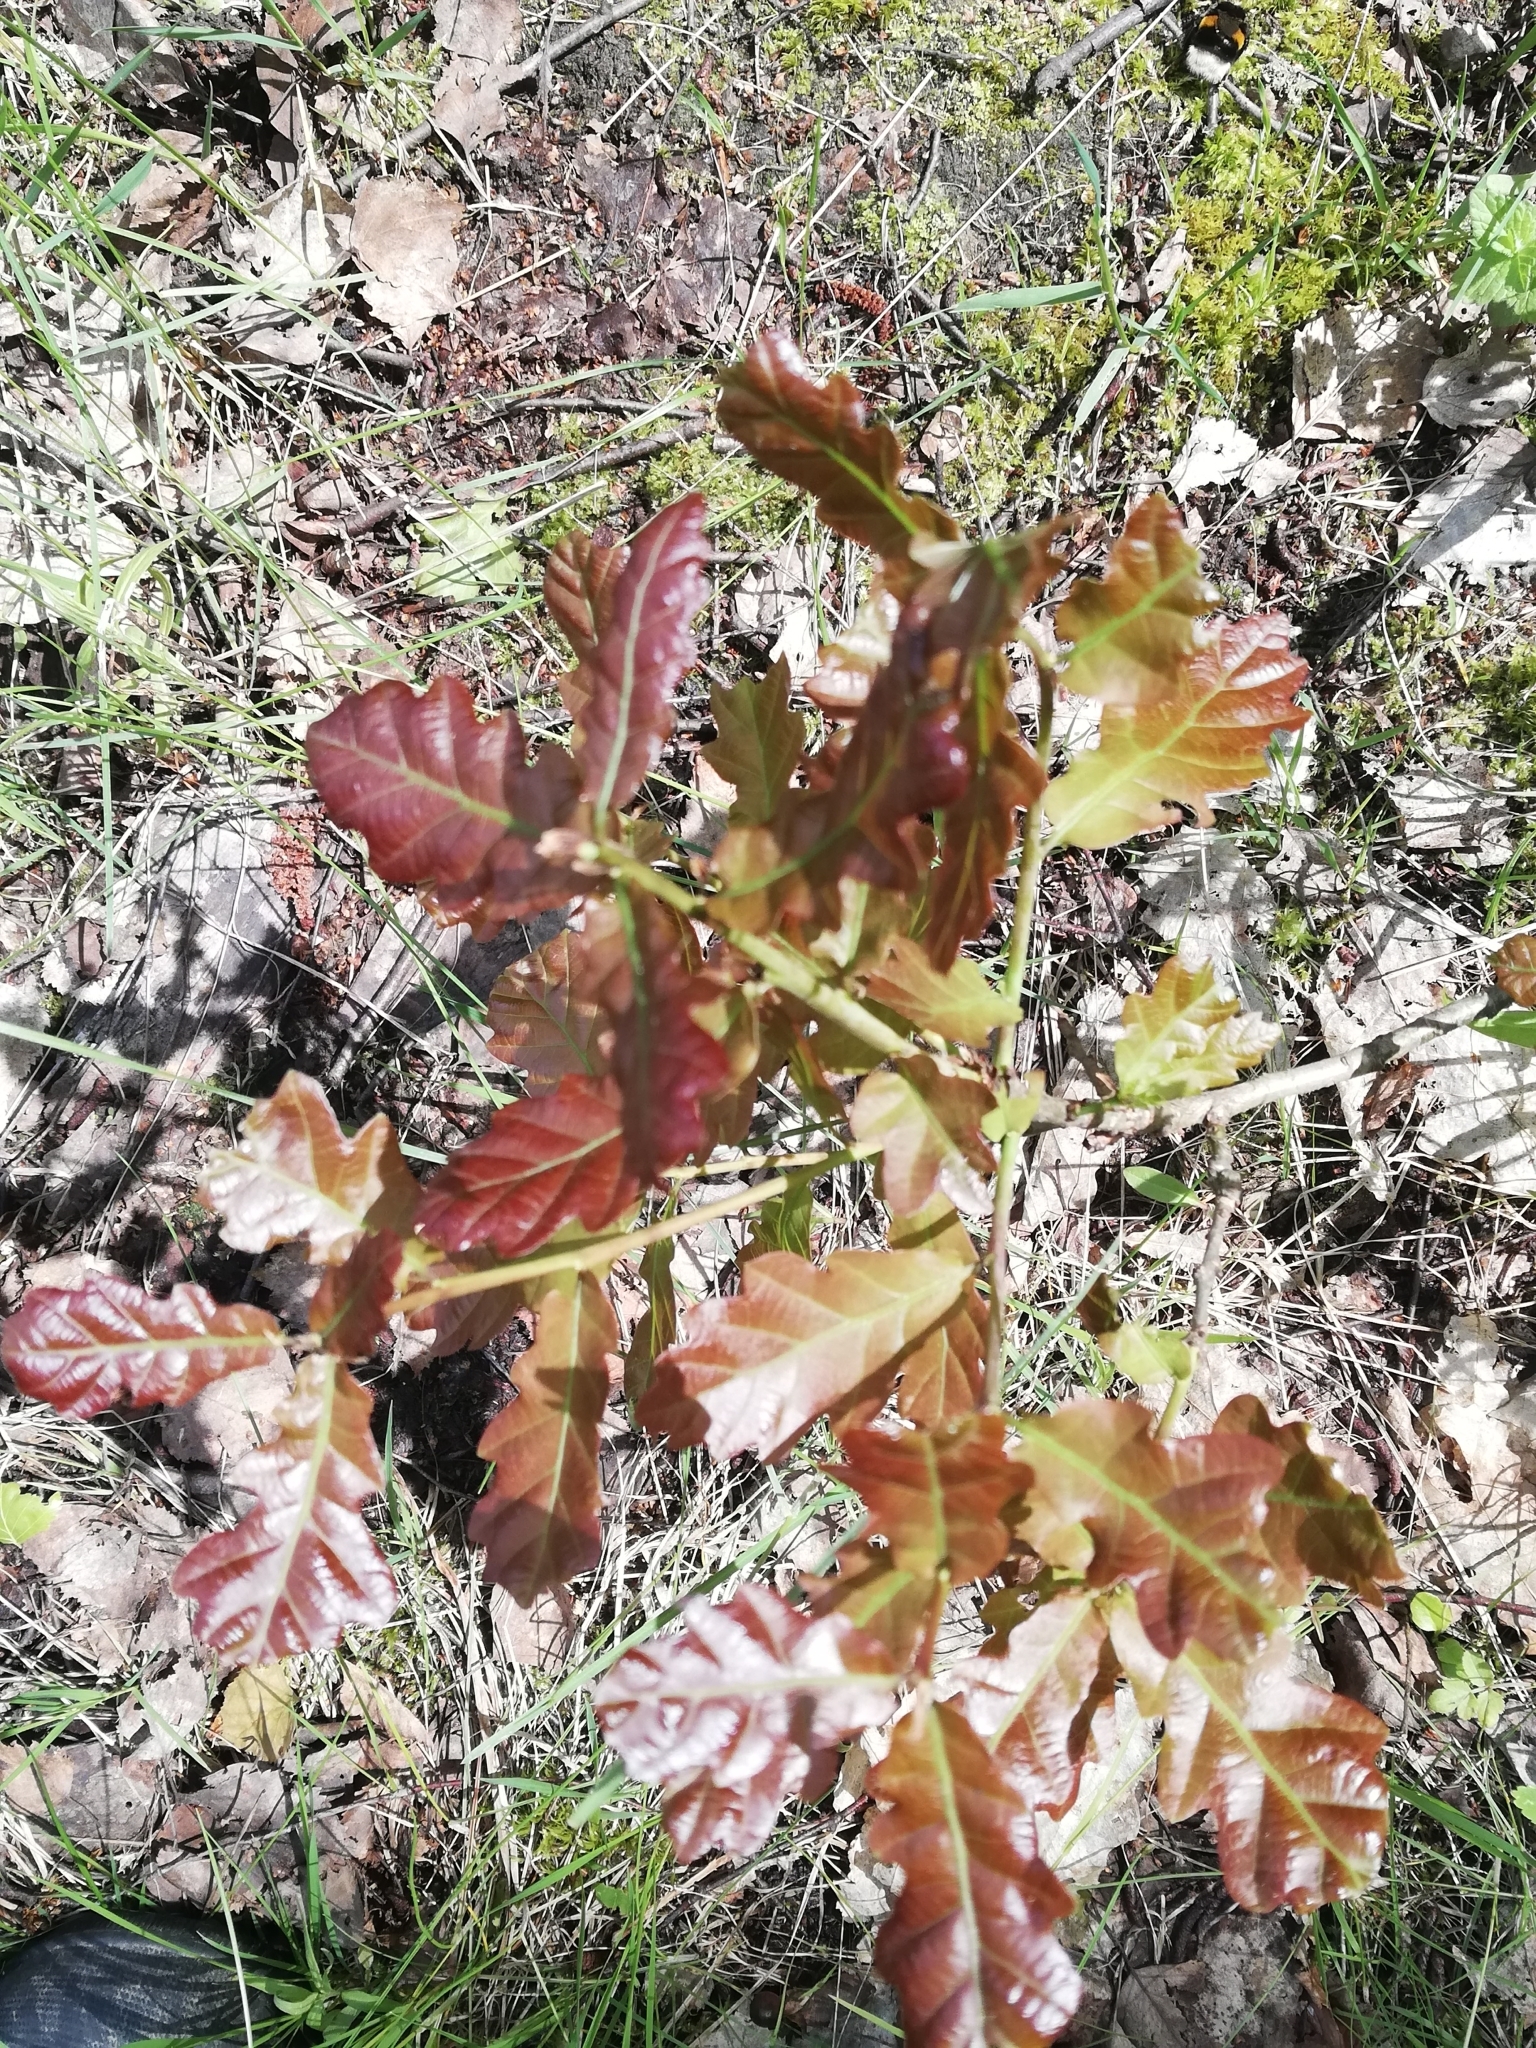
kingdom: Plantae
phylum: Tracheophyta
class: Magnoliopsida
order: Fagales
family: Fagaceae
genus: Quercus
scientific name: Quercus robur
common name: Pedunculate oak
